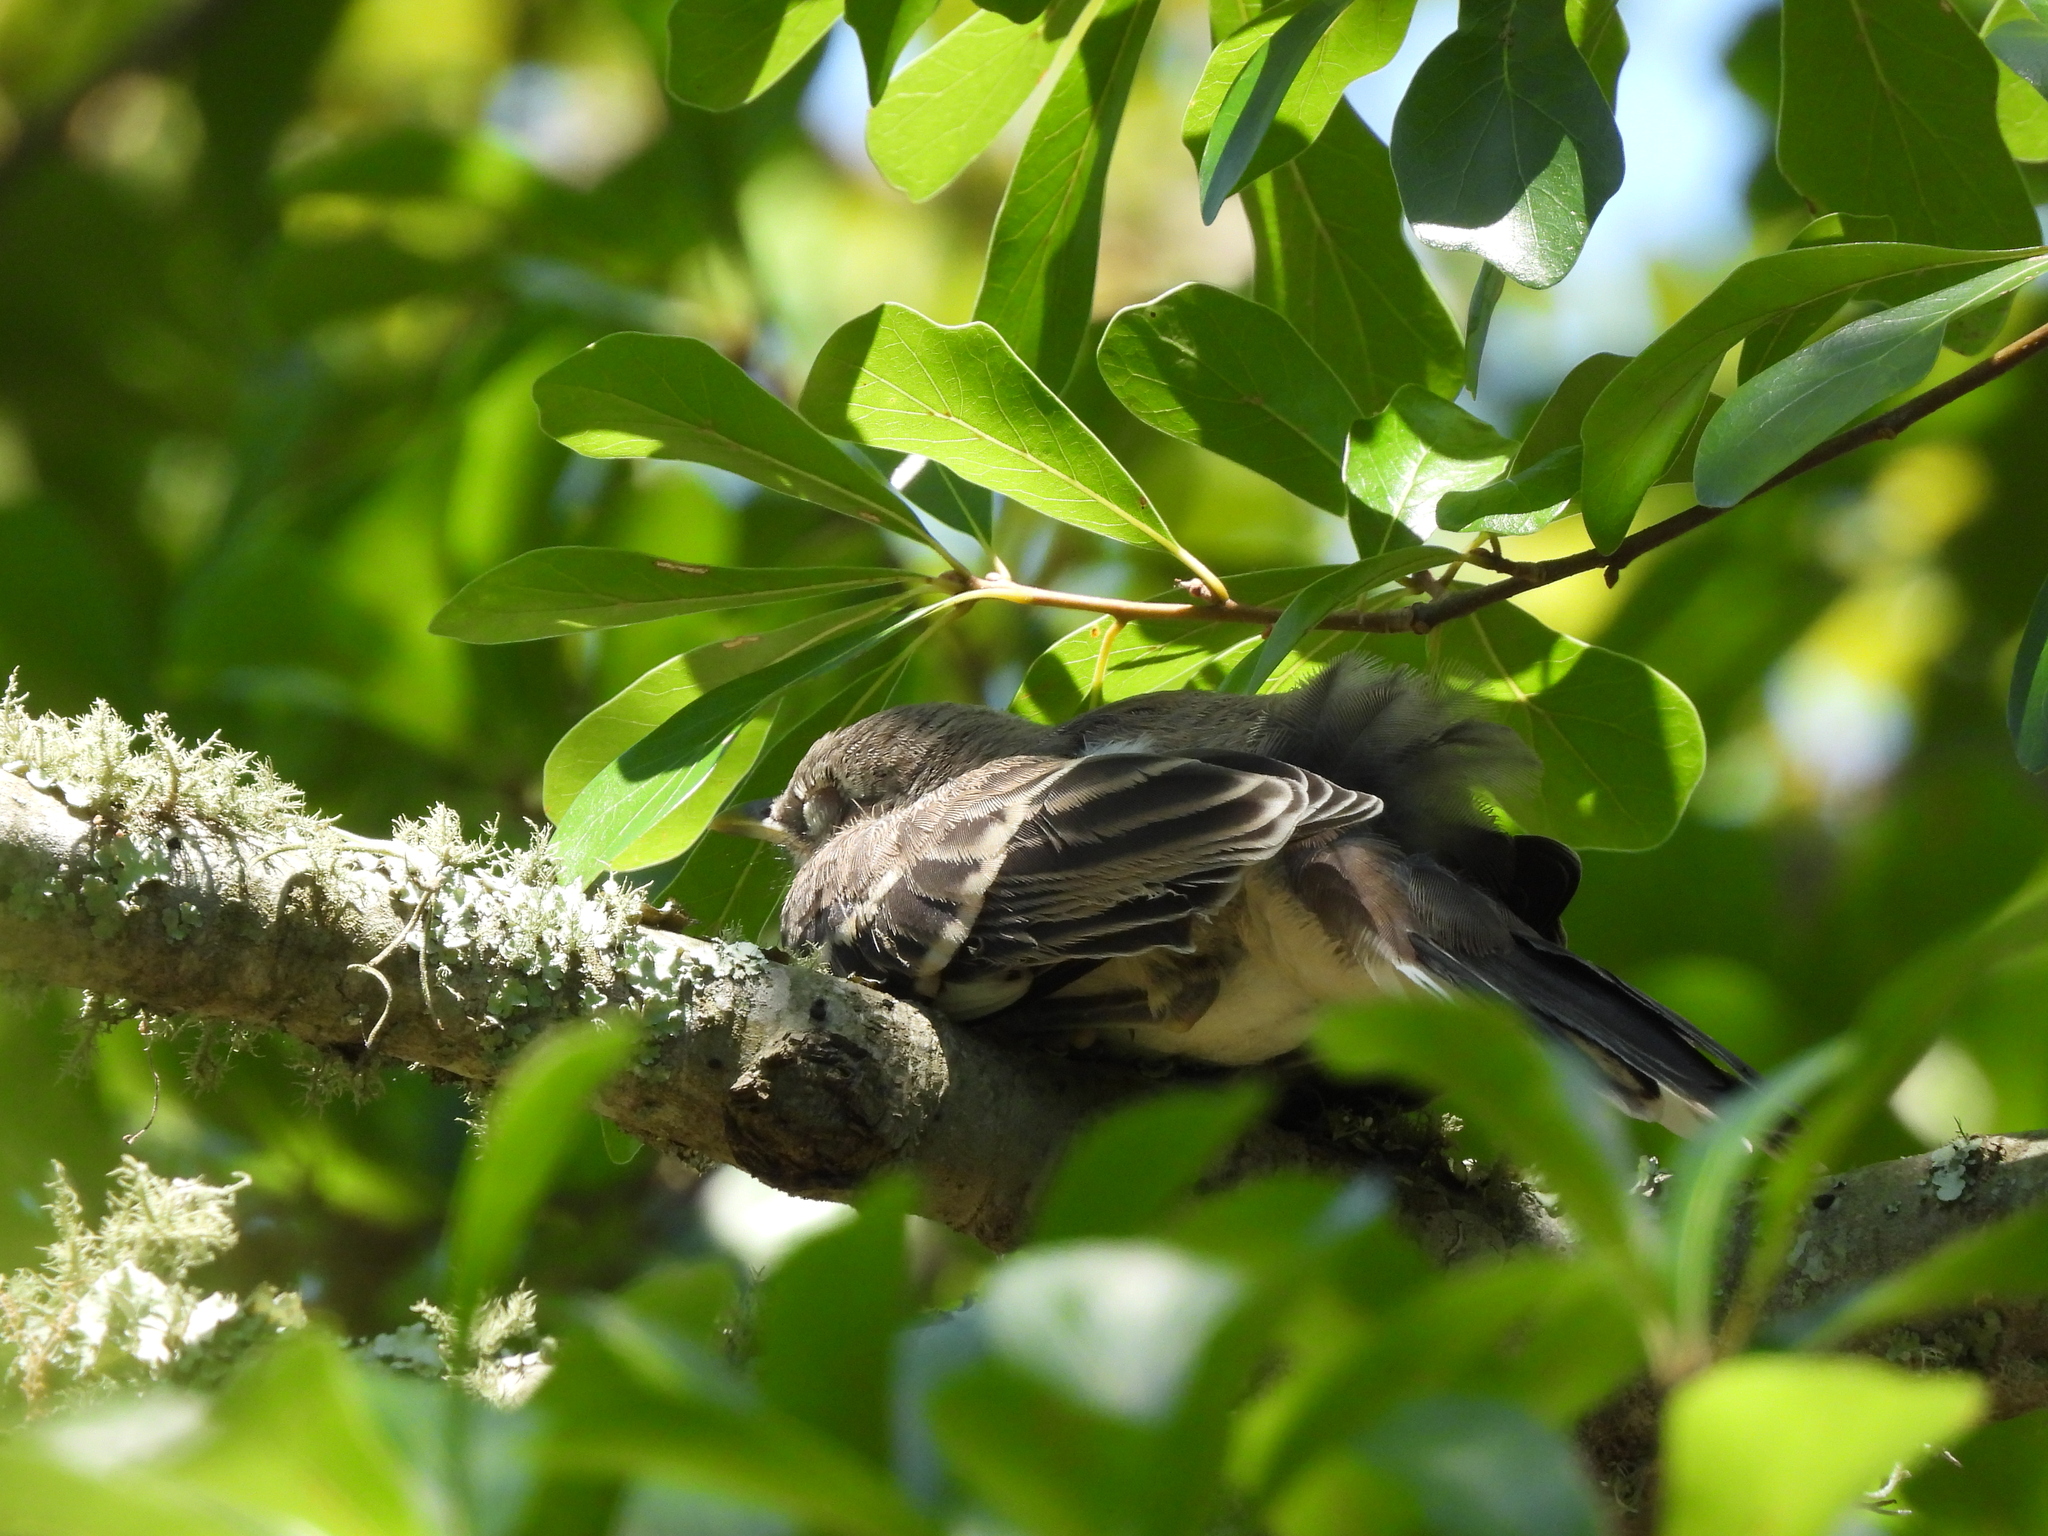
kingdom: Animalia
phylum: Chordata
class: Aves
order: Passeriformes
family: Mimidae
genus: Mimus
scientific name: Mimus polyglottos
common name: Northern mockingbird
